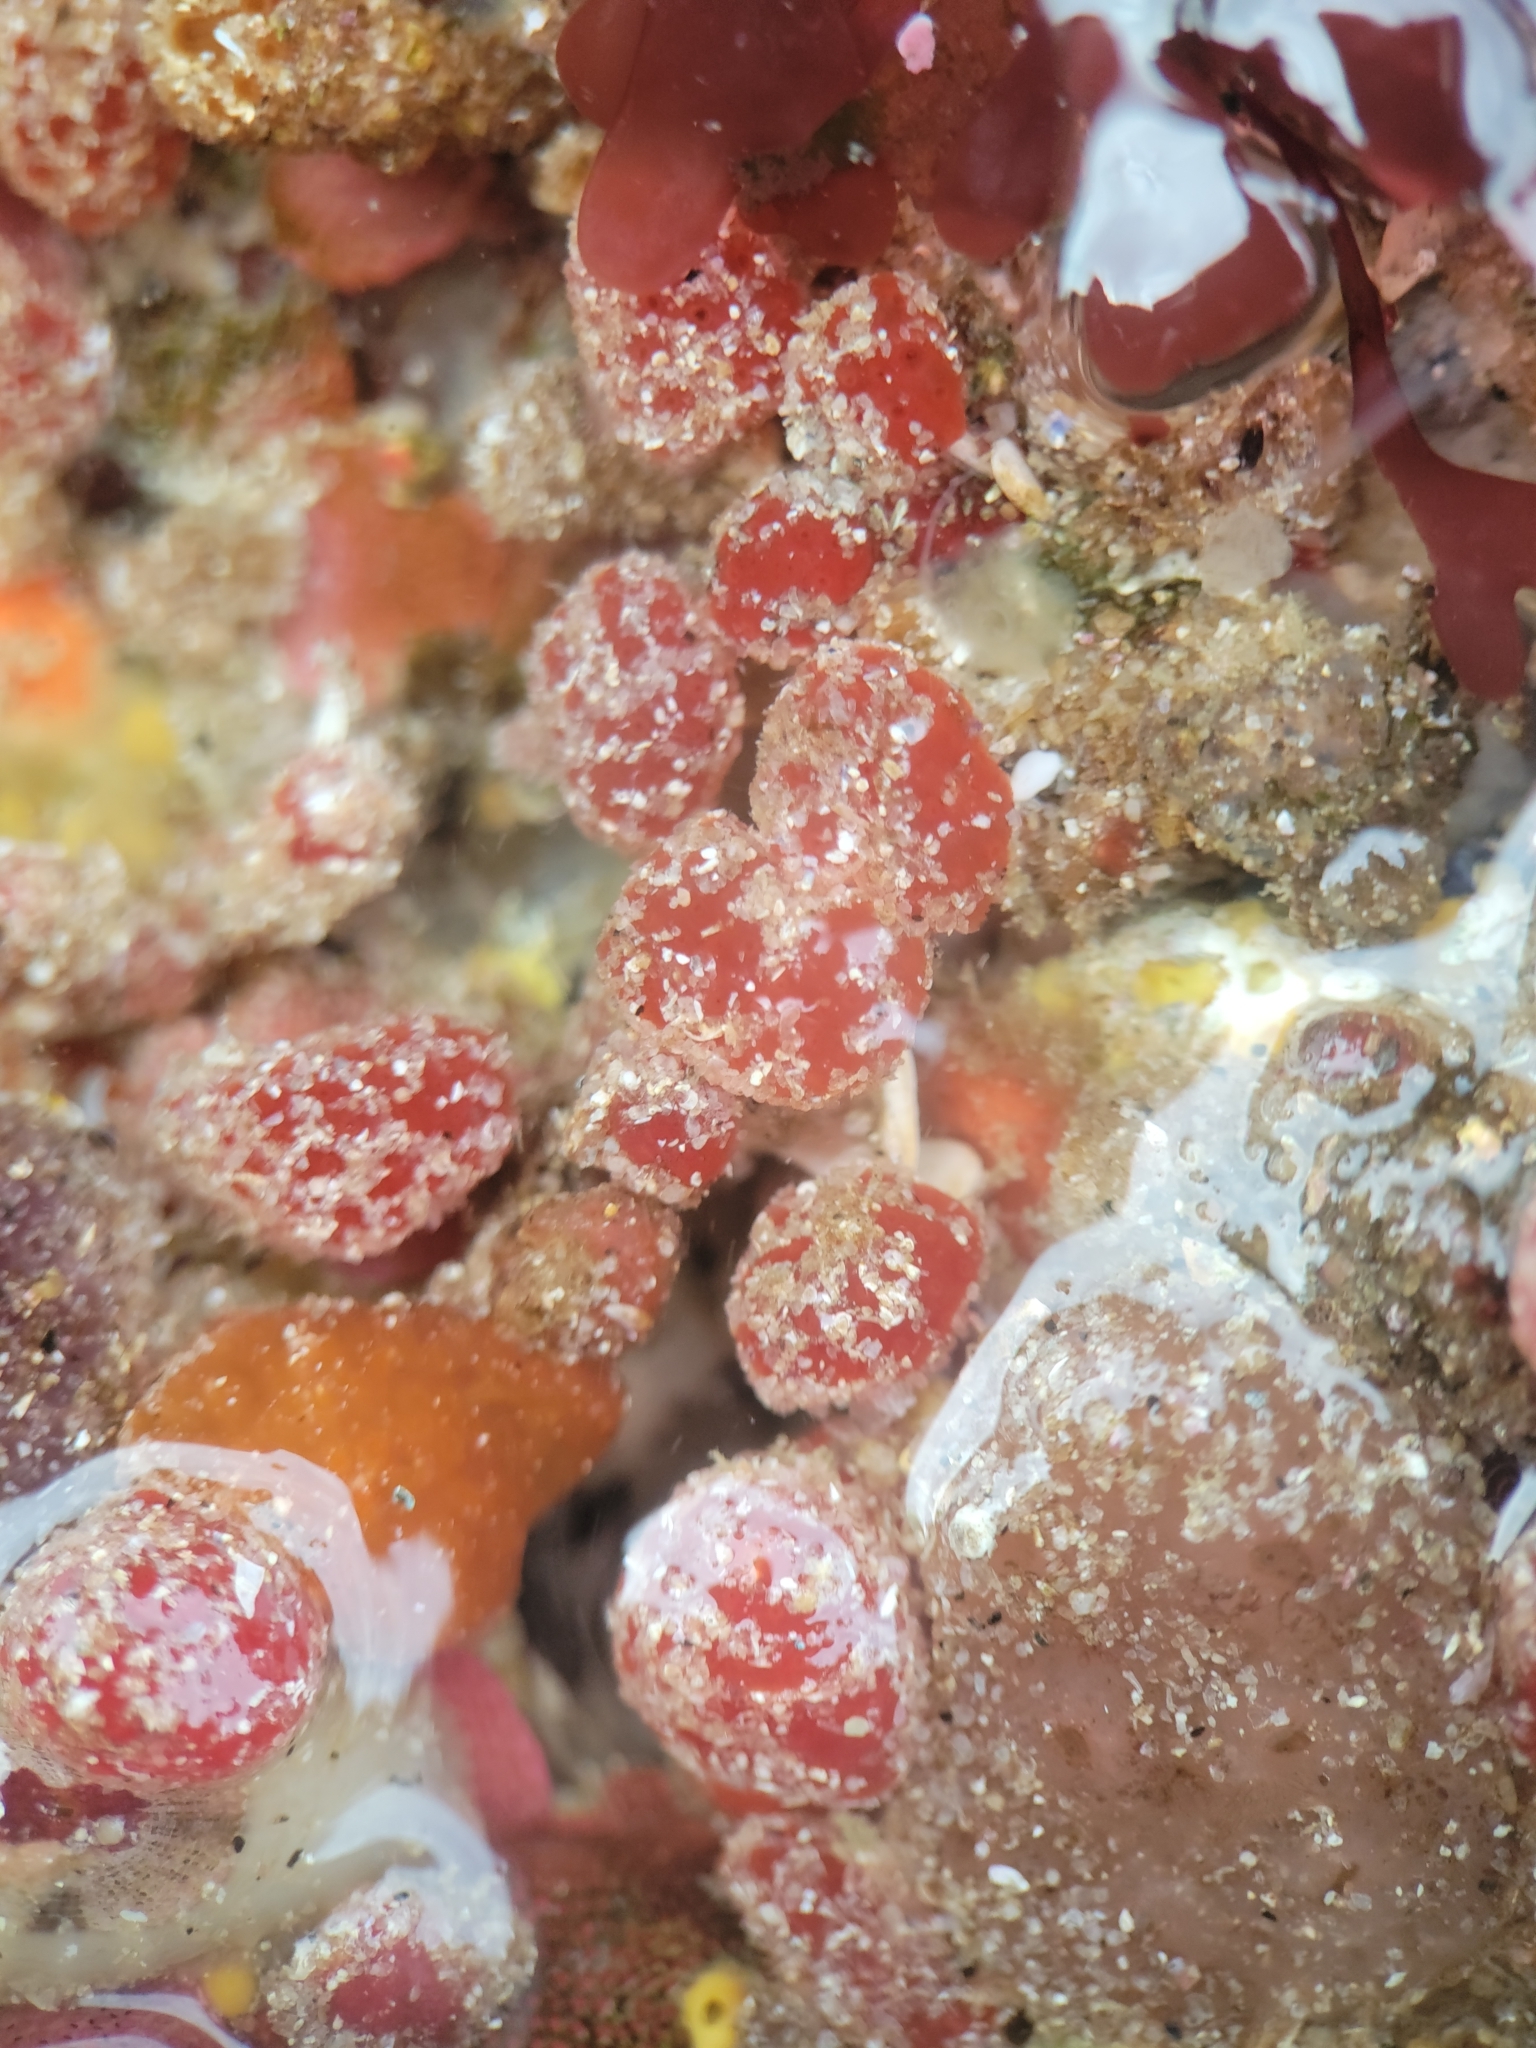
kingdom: Animalia
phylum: Chordata
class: Ascidiacea
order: Aplousobranchia
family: Ritterellidae
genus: Ritterella
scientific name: Ritterella rubra
